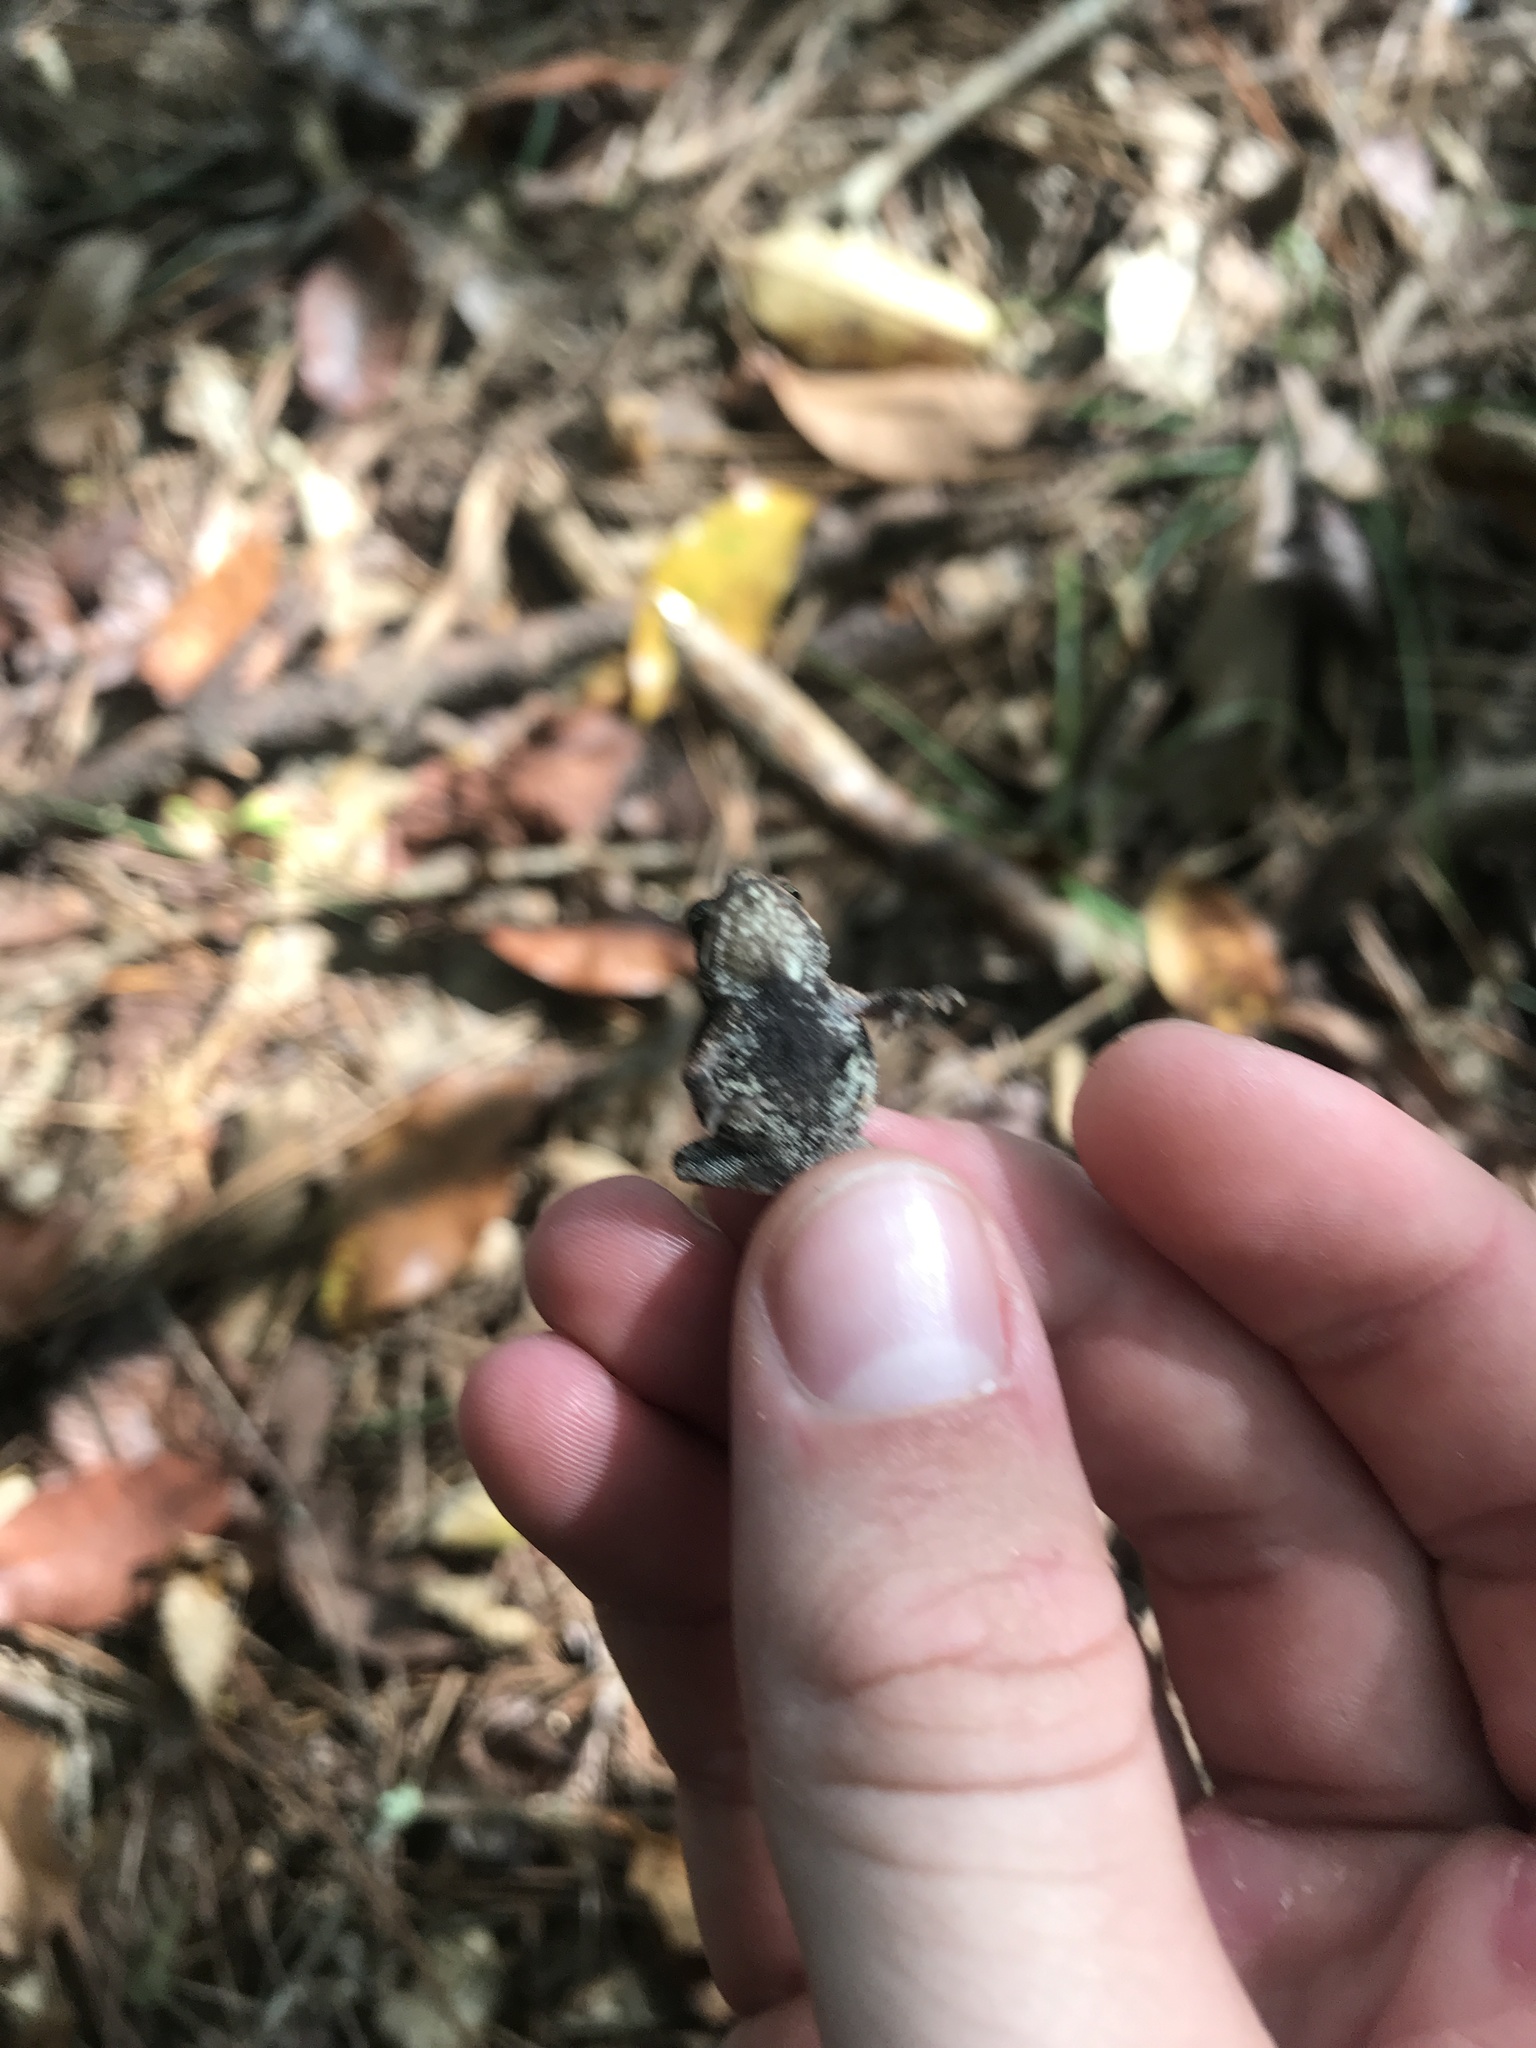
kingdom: Animalia
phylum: Chordata
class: Amphibia
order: Anura
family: Bufonidae
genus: Incilius
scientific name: Incilius nebulifer
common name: Gulf coast toad
